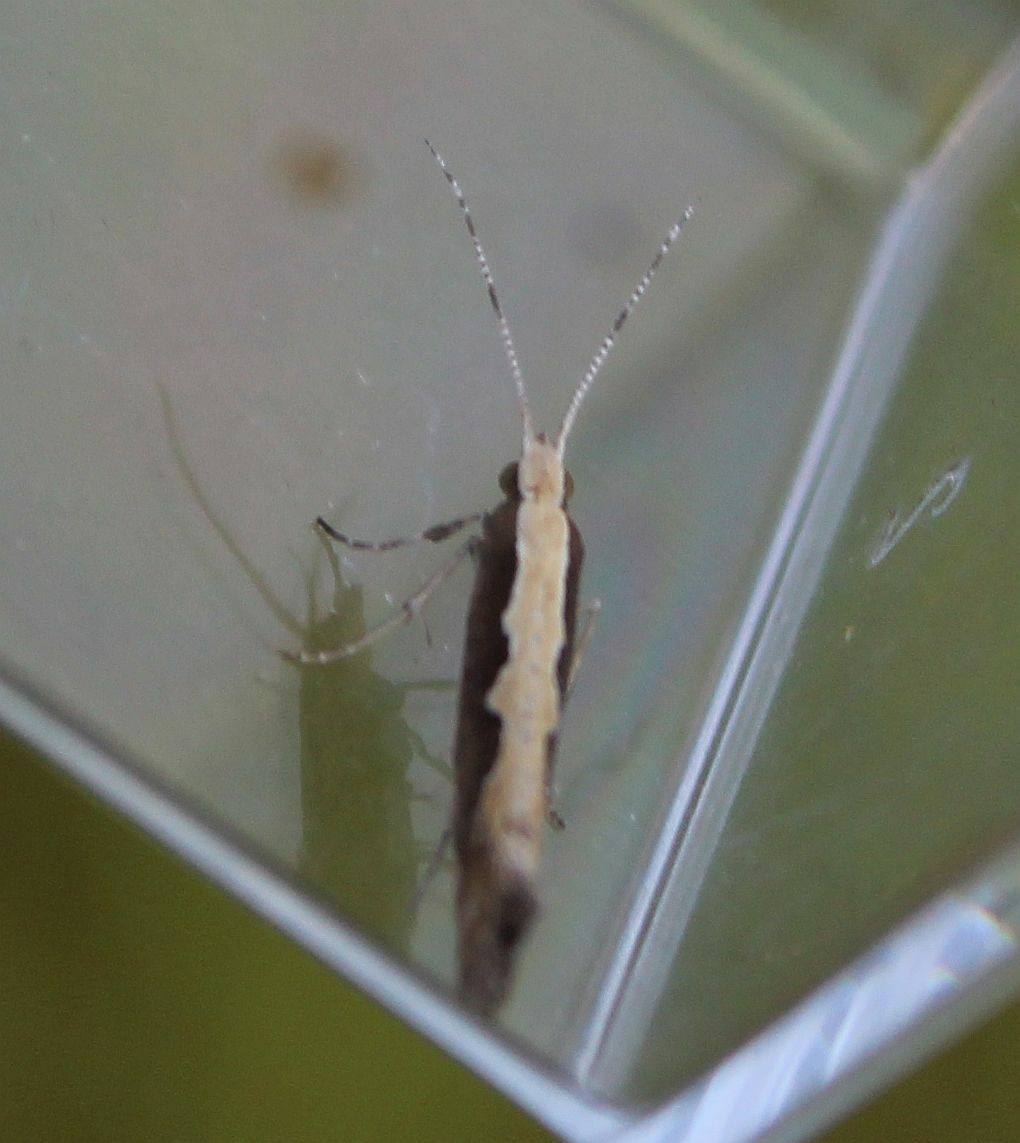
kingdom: Animalia
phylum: Arthropoda
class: Insecta
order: Lepidoptera
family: Plutellidae
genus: Plutella
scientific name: Plutella xylostella
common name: Diamond-back moth
